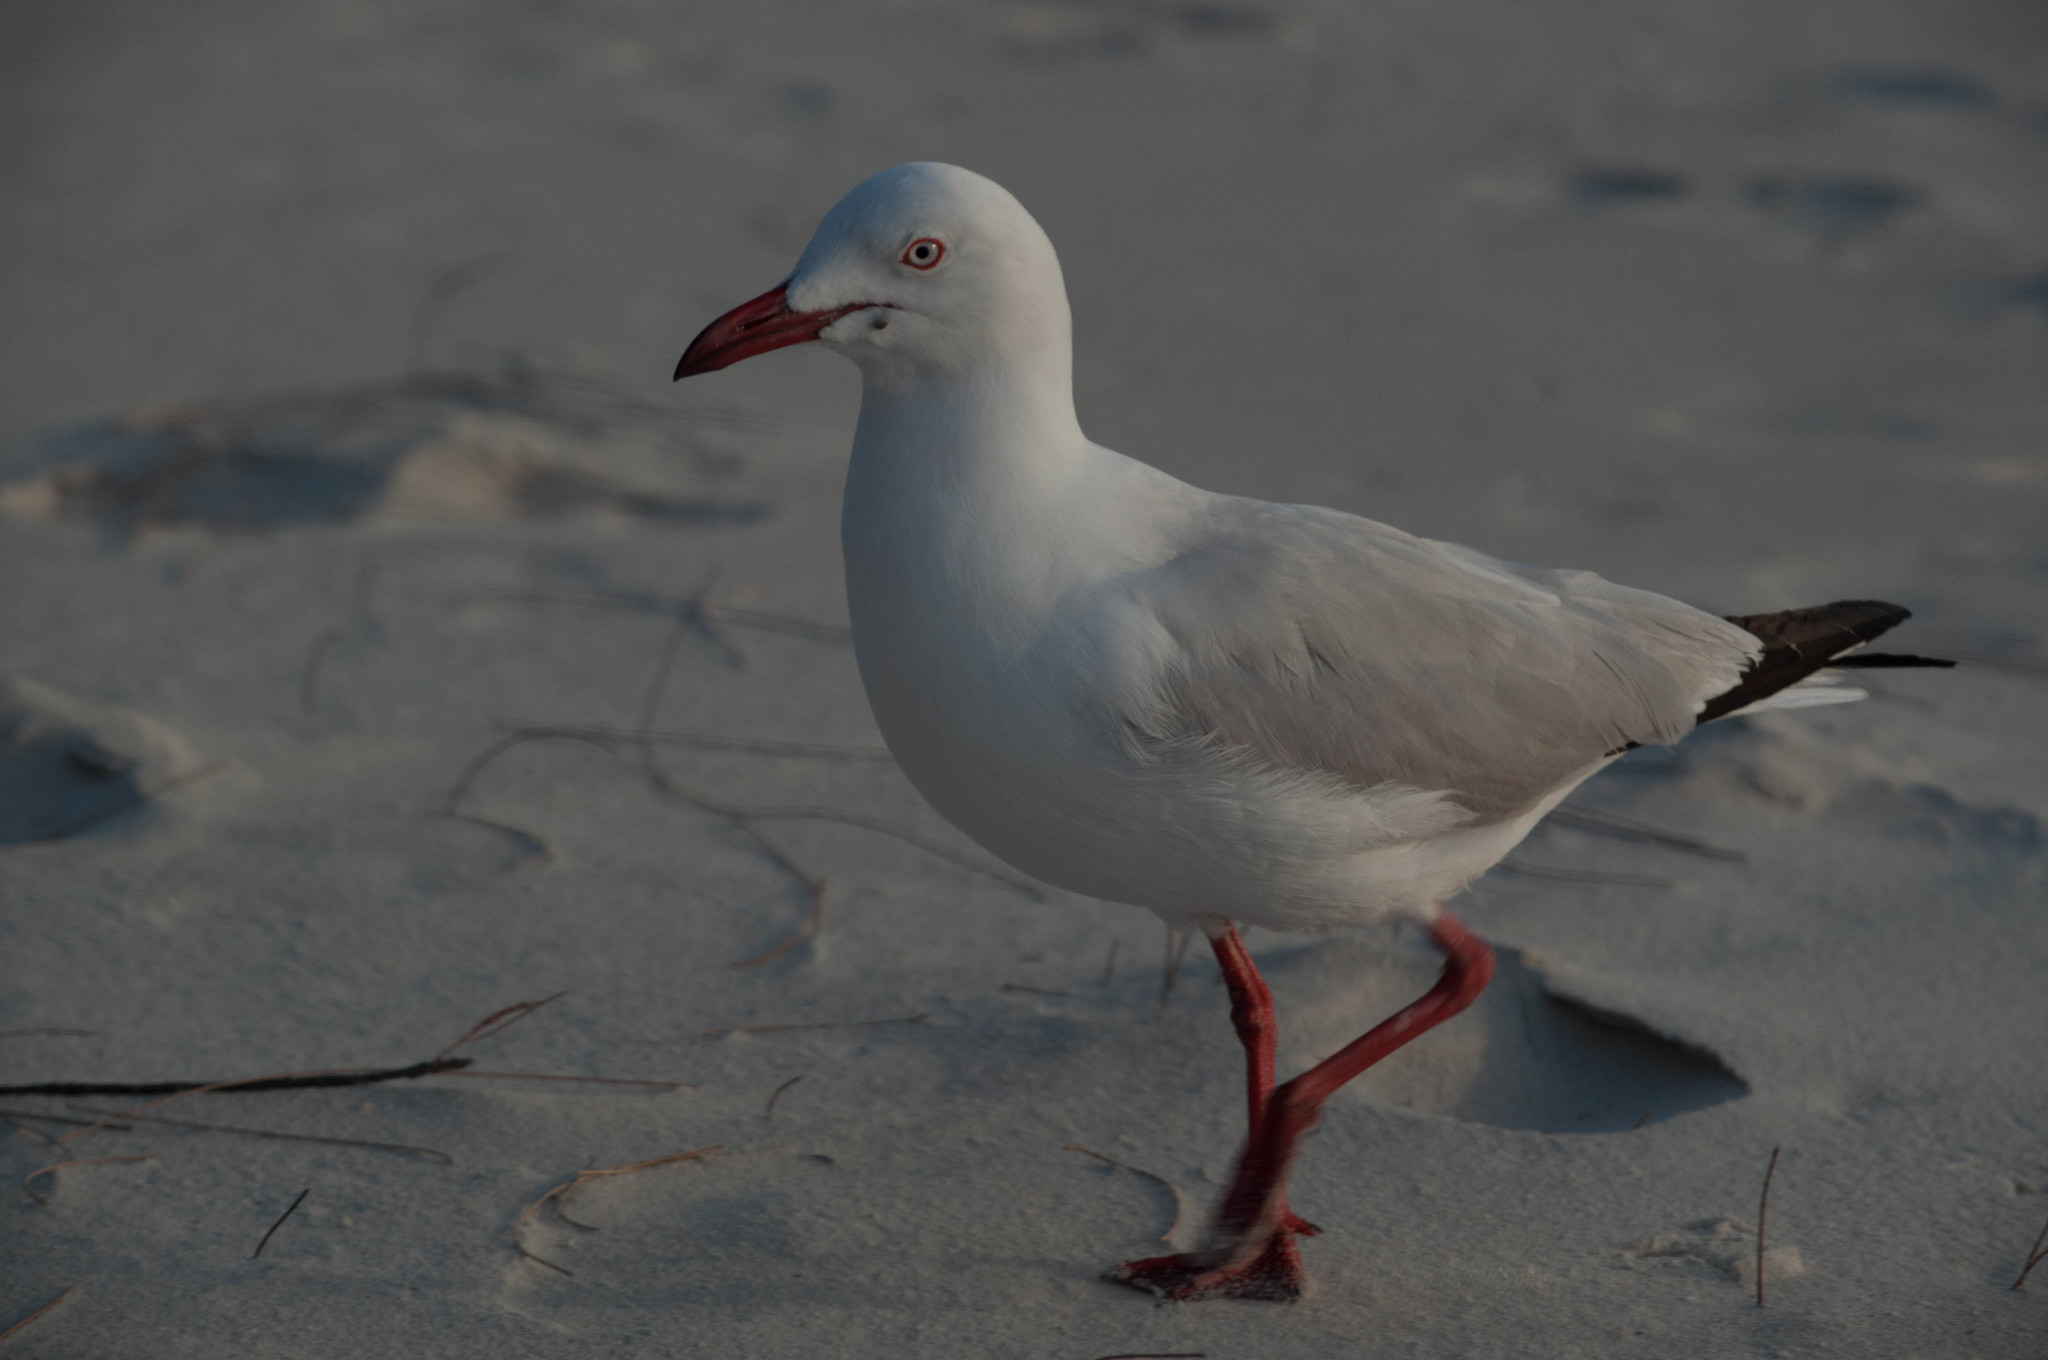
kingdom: Animalia
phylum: Chordata
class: Aves
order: Charadriiformes
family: Laridae
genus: Chroicocephalus
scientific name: Chroicocephalus novaehollandiae
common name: Silver gull
